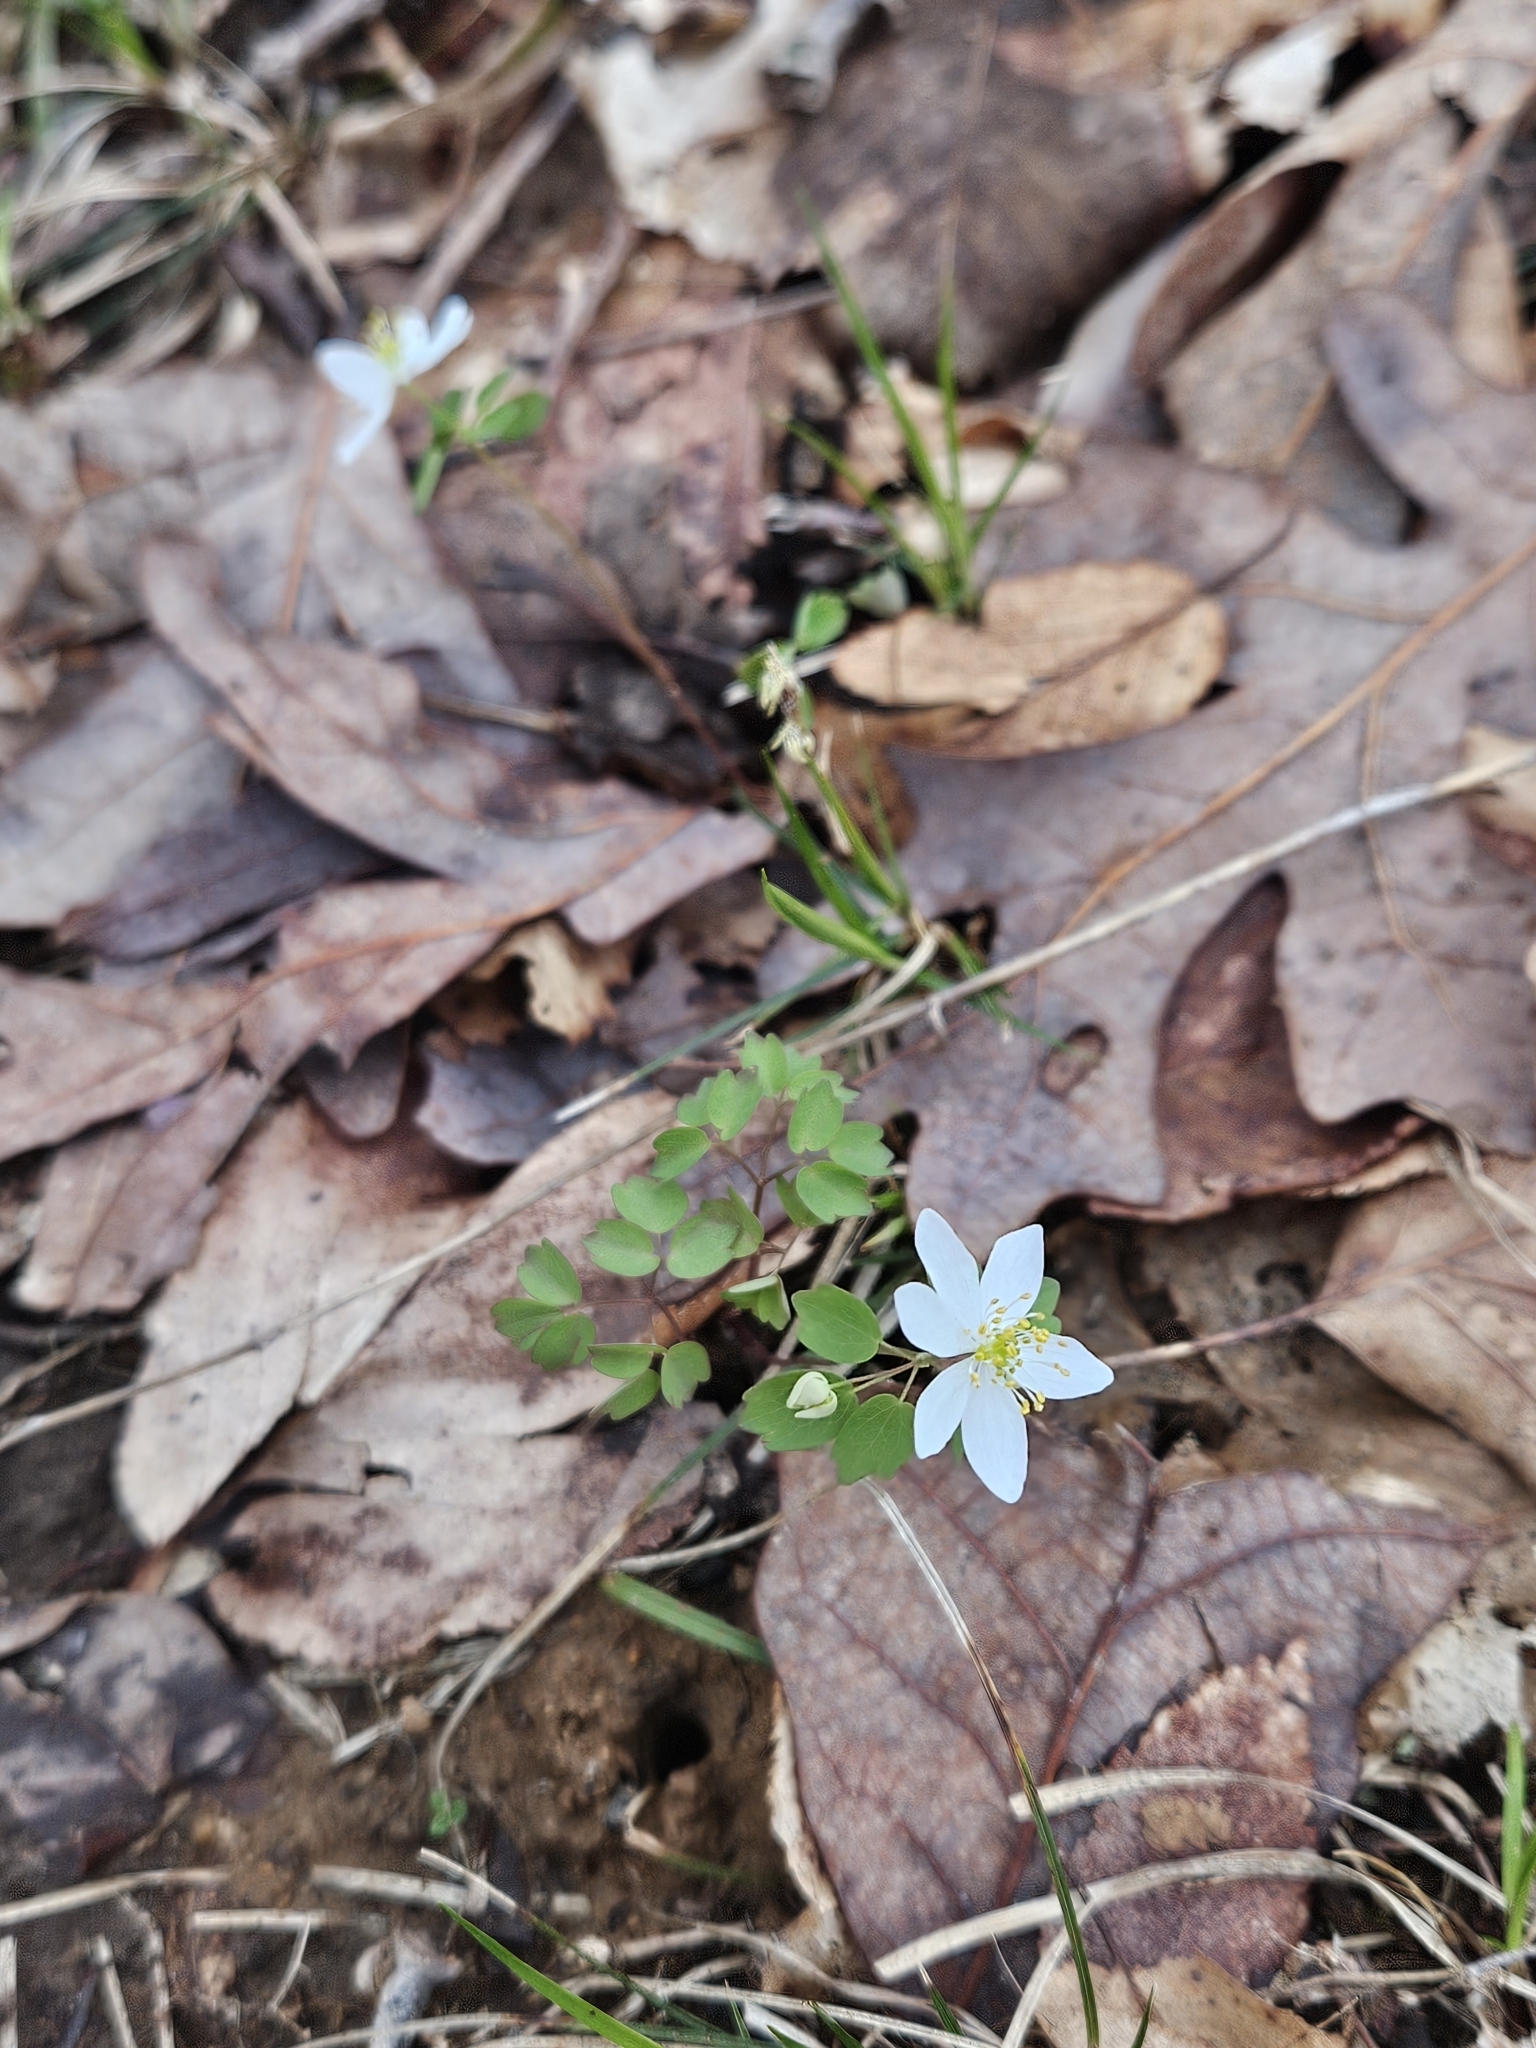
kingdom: Plantae
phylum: Tracheophyta
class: Magnoliopsida
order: Ranunculales
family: Ranunculaceae
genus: Thalictrum
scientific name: Thalictrum thalictroides
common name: Rue-anemone
